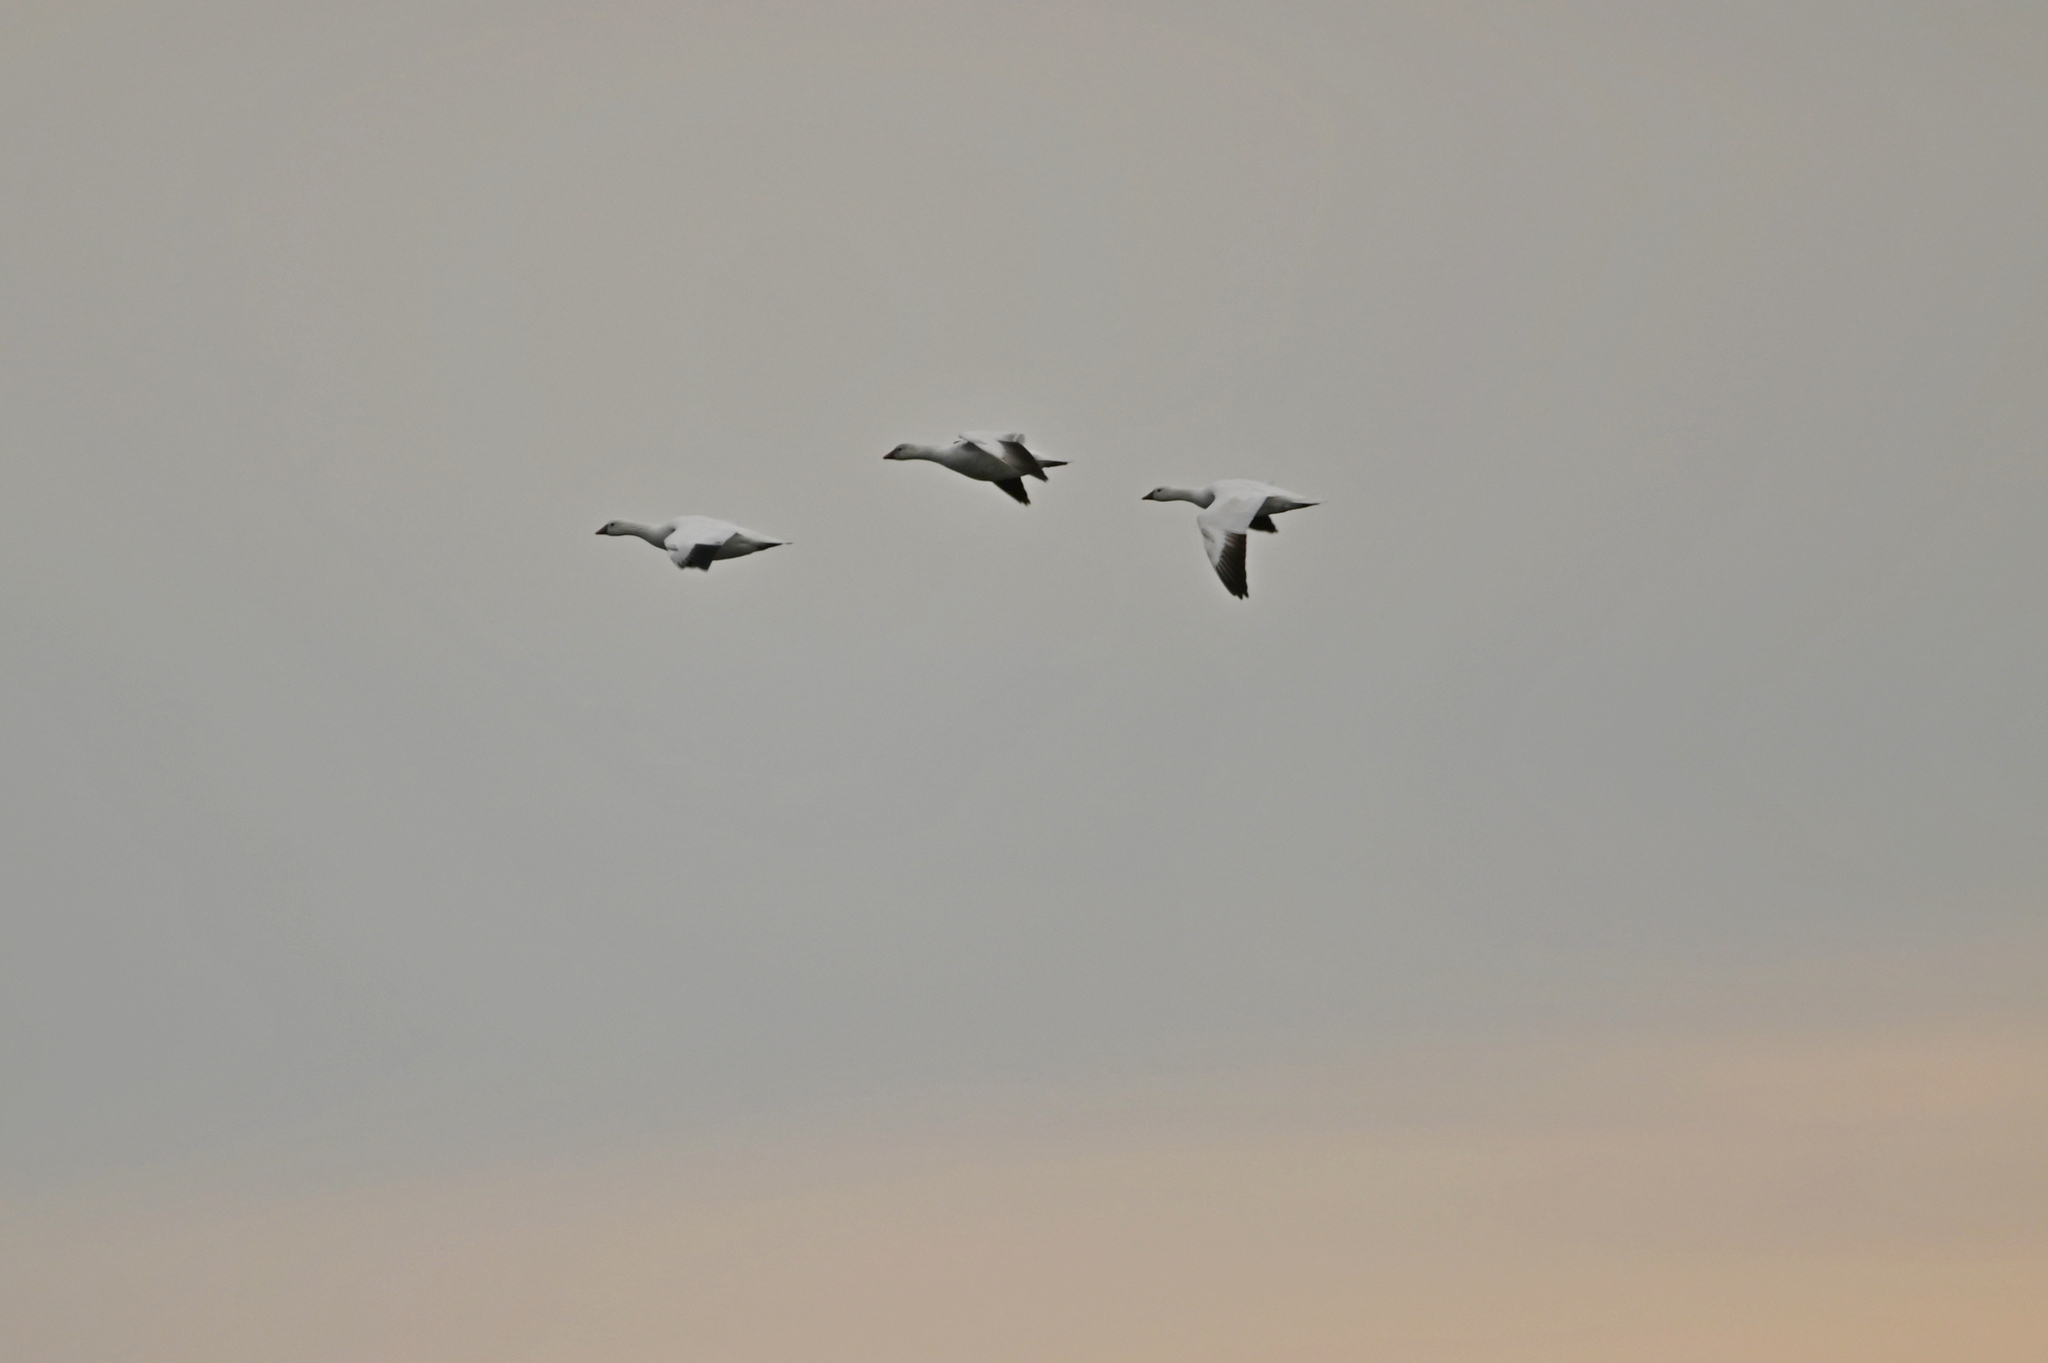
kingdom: Animalia
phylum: Chordata
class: Aves
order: Anseriformes
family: Anatidae
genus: Anser
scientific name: Anser rossii
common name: Ross's goose
